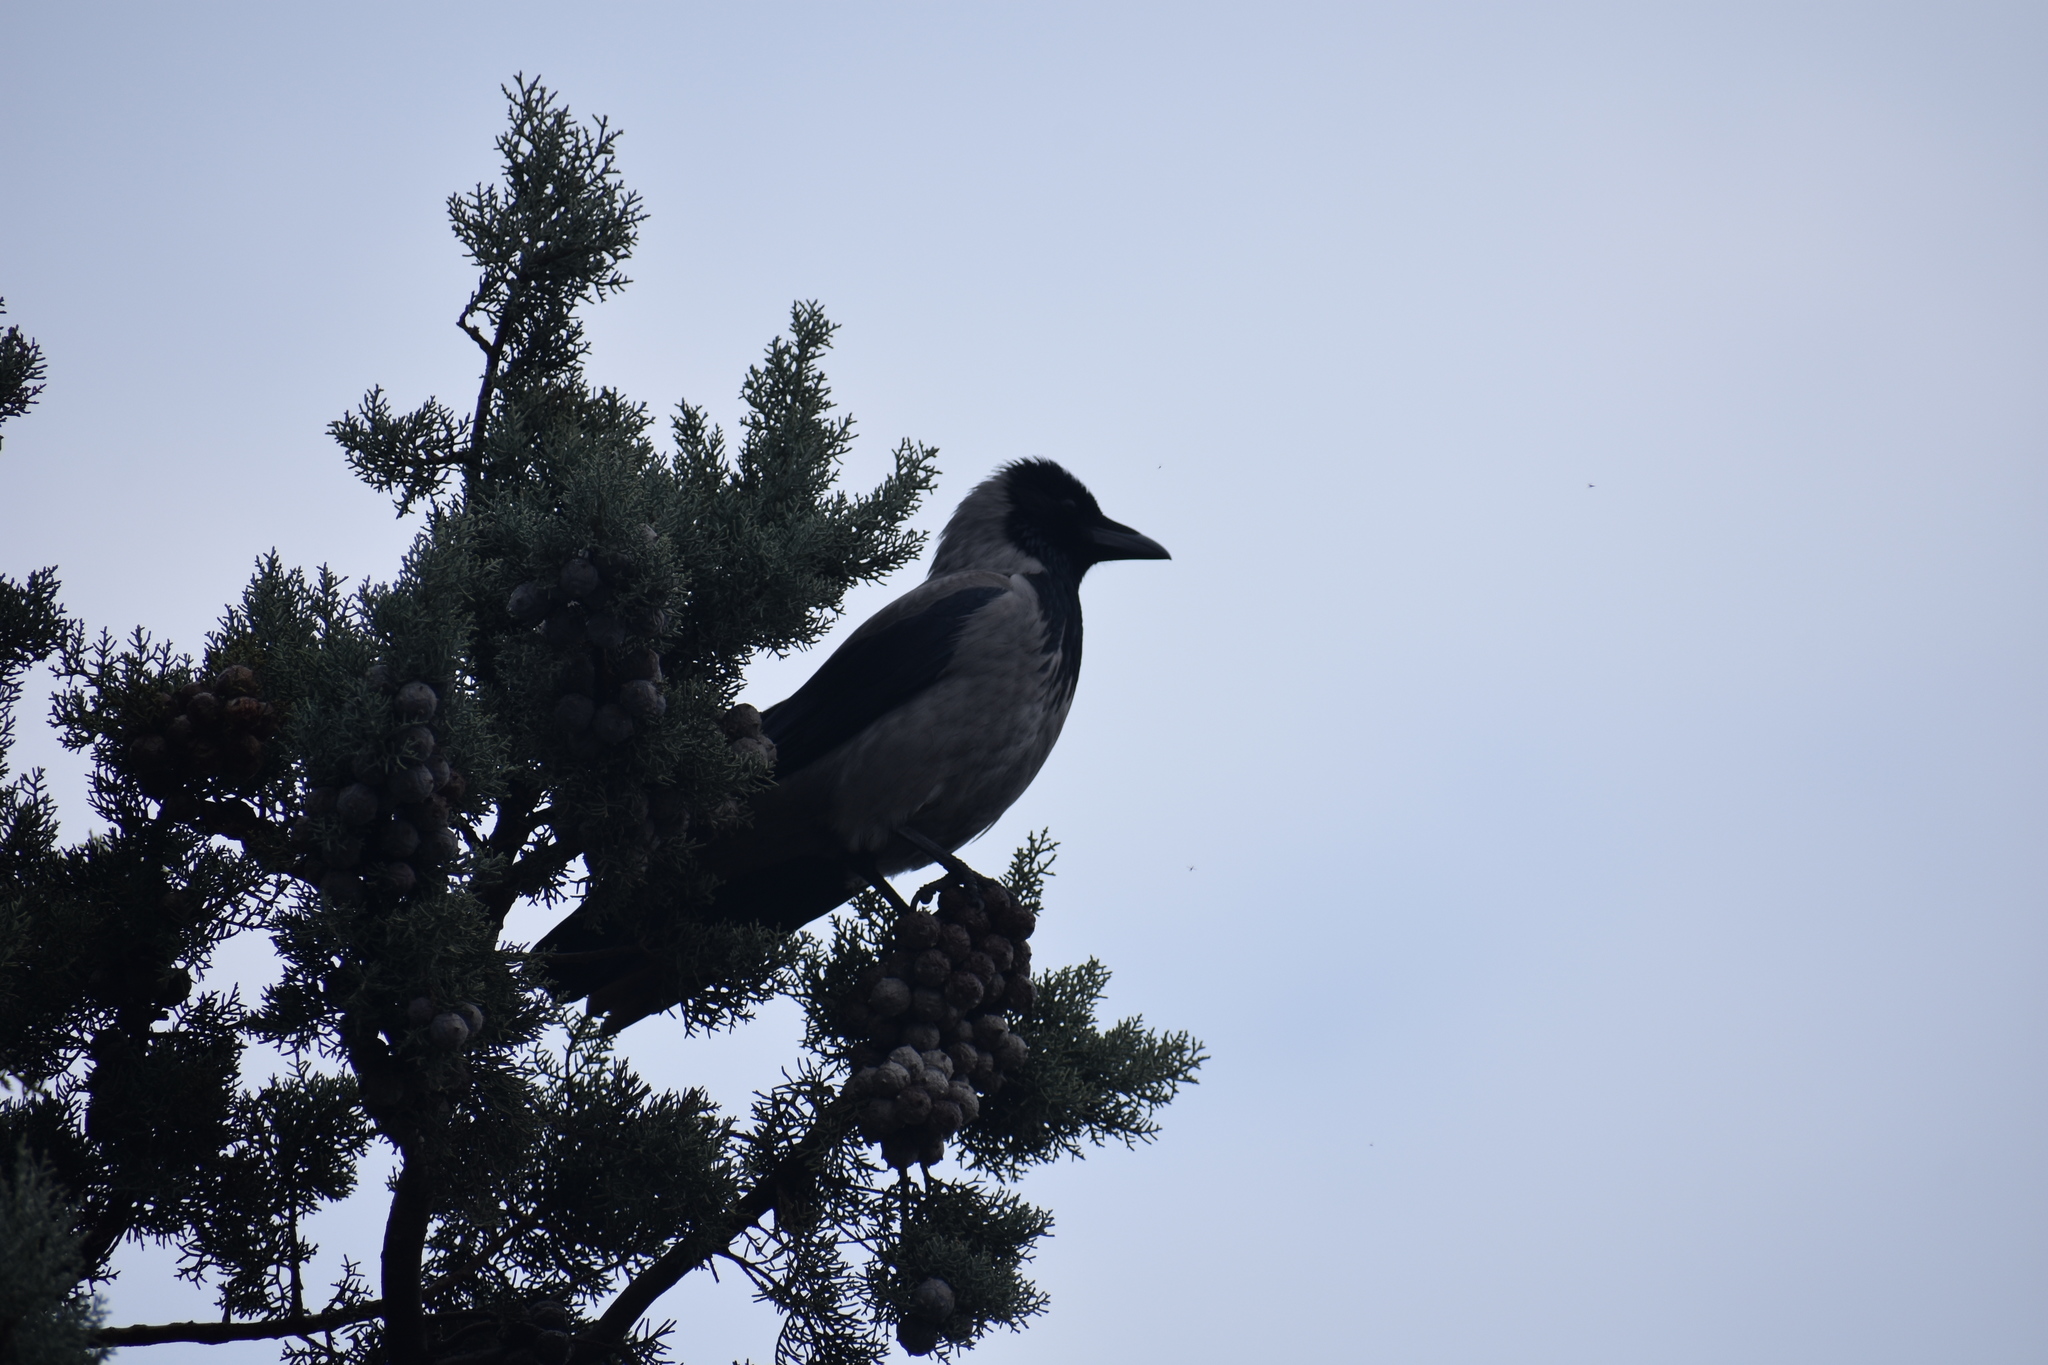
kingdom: Animalia
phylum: Chordata
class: Aves
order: Passeriformes
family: Corvidae
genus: Corvus
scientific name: Corvus cornix
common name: Hooded crow
